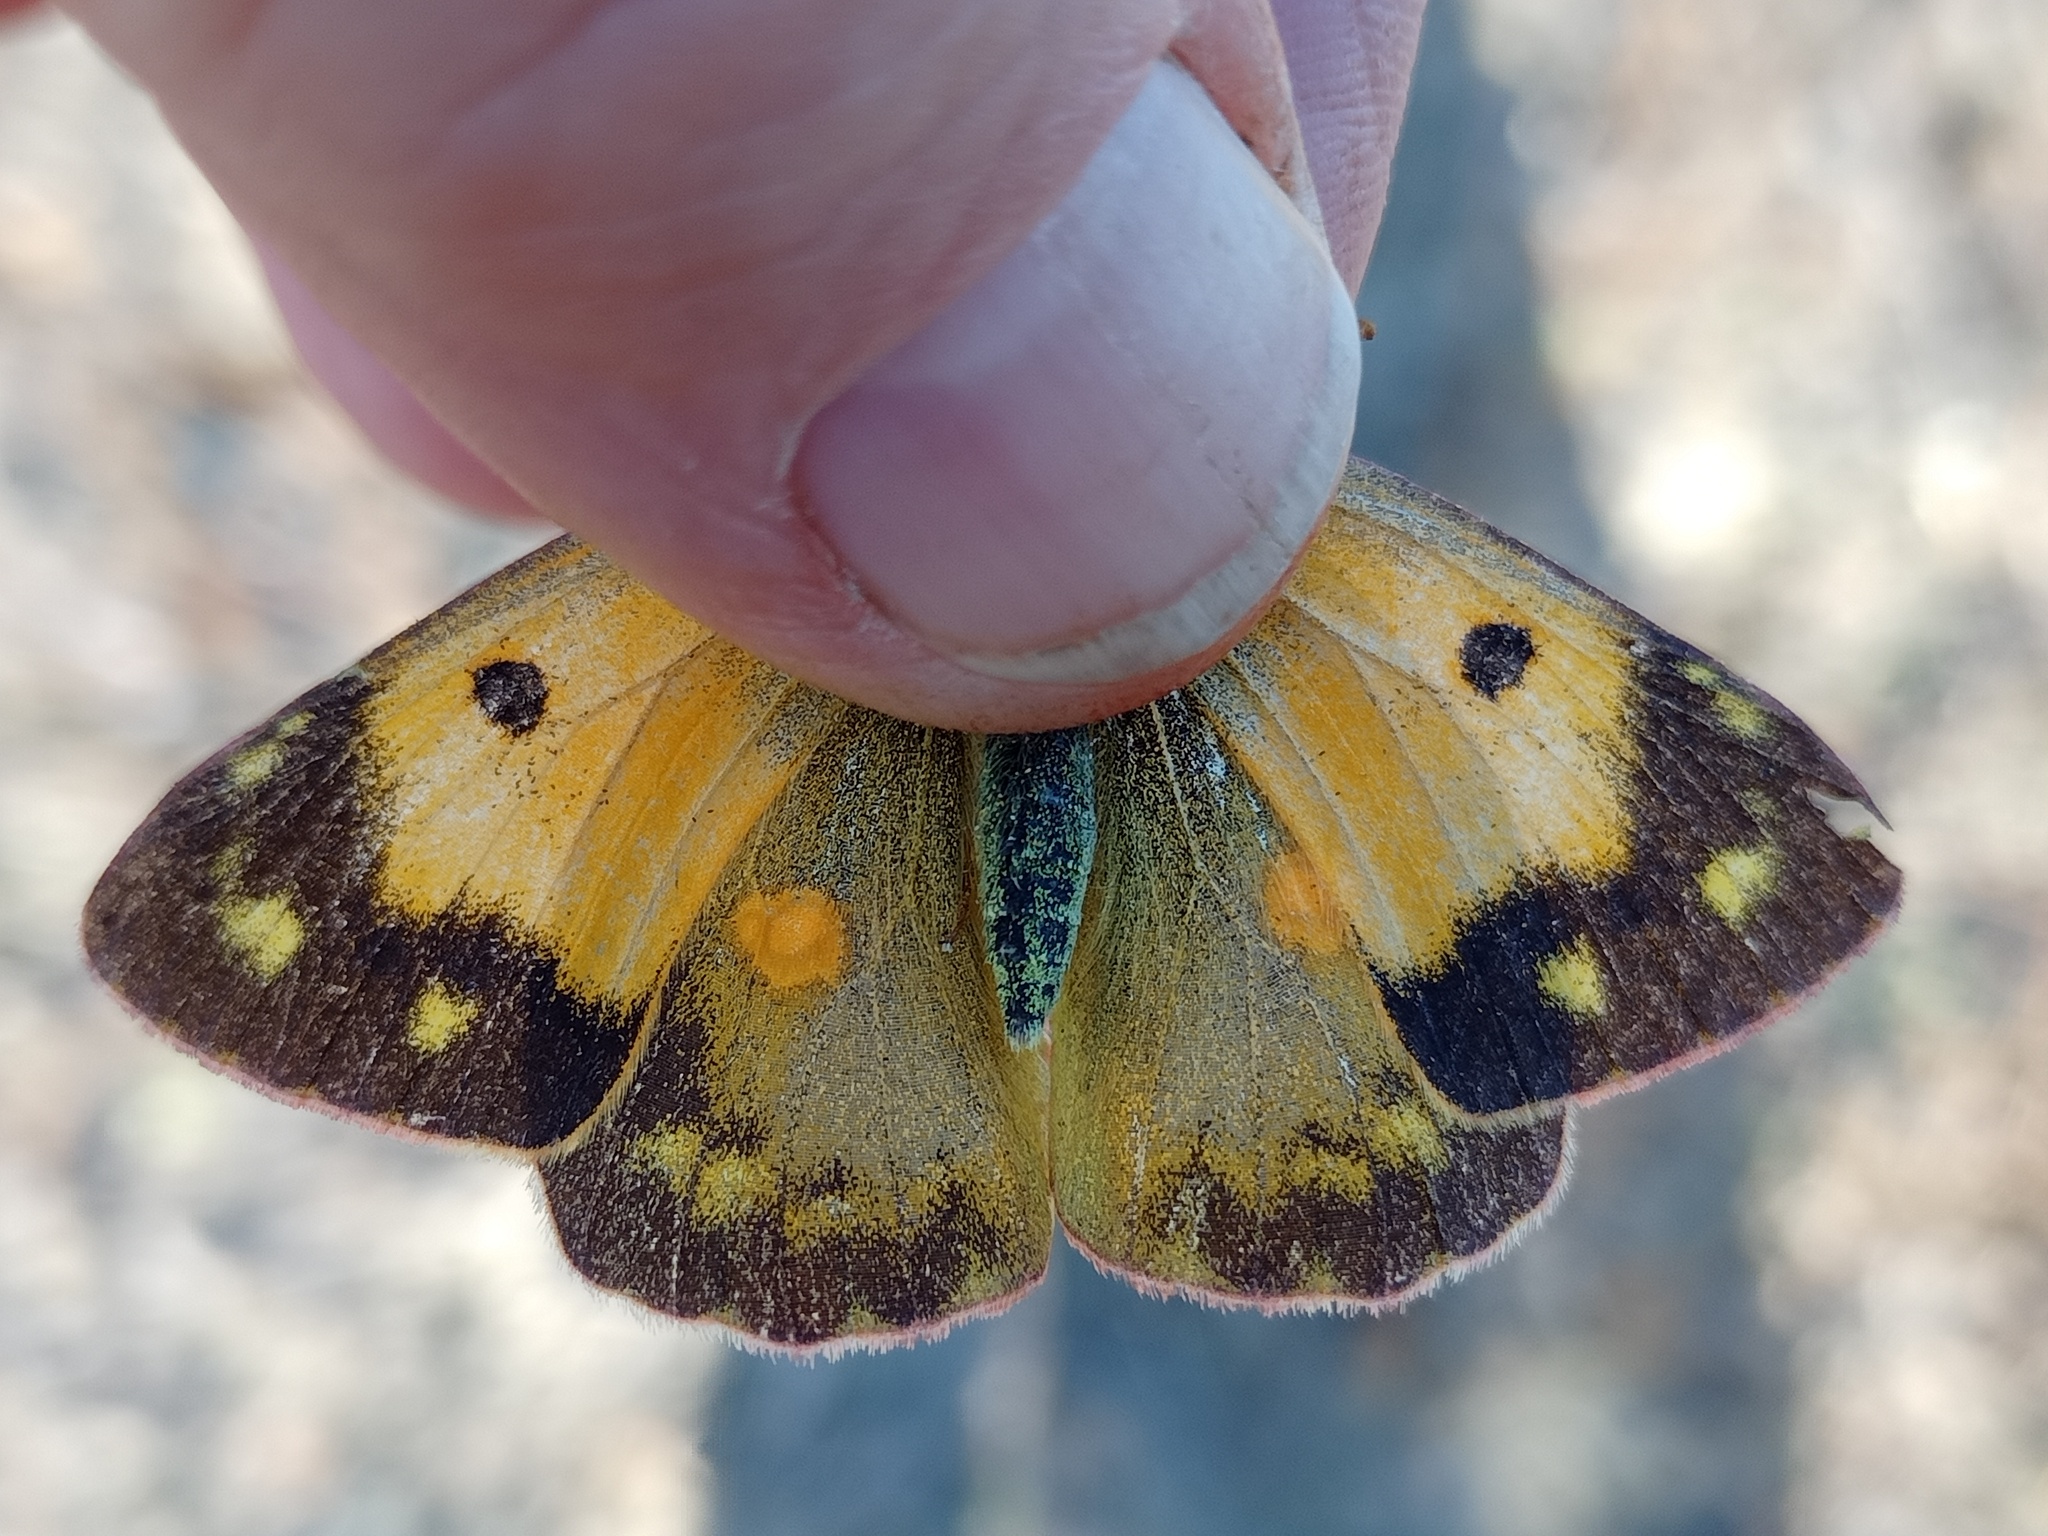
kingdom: Animalia
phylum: Arthropoda
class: Insecta
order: Lepidoptera
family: Pieridae
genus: Colias
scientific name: Colias croceus
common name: Clouded yellow
